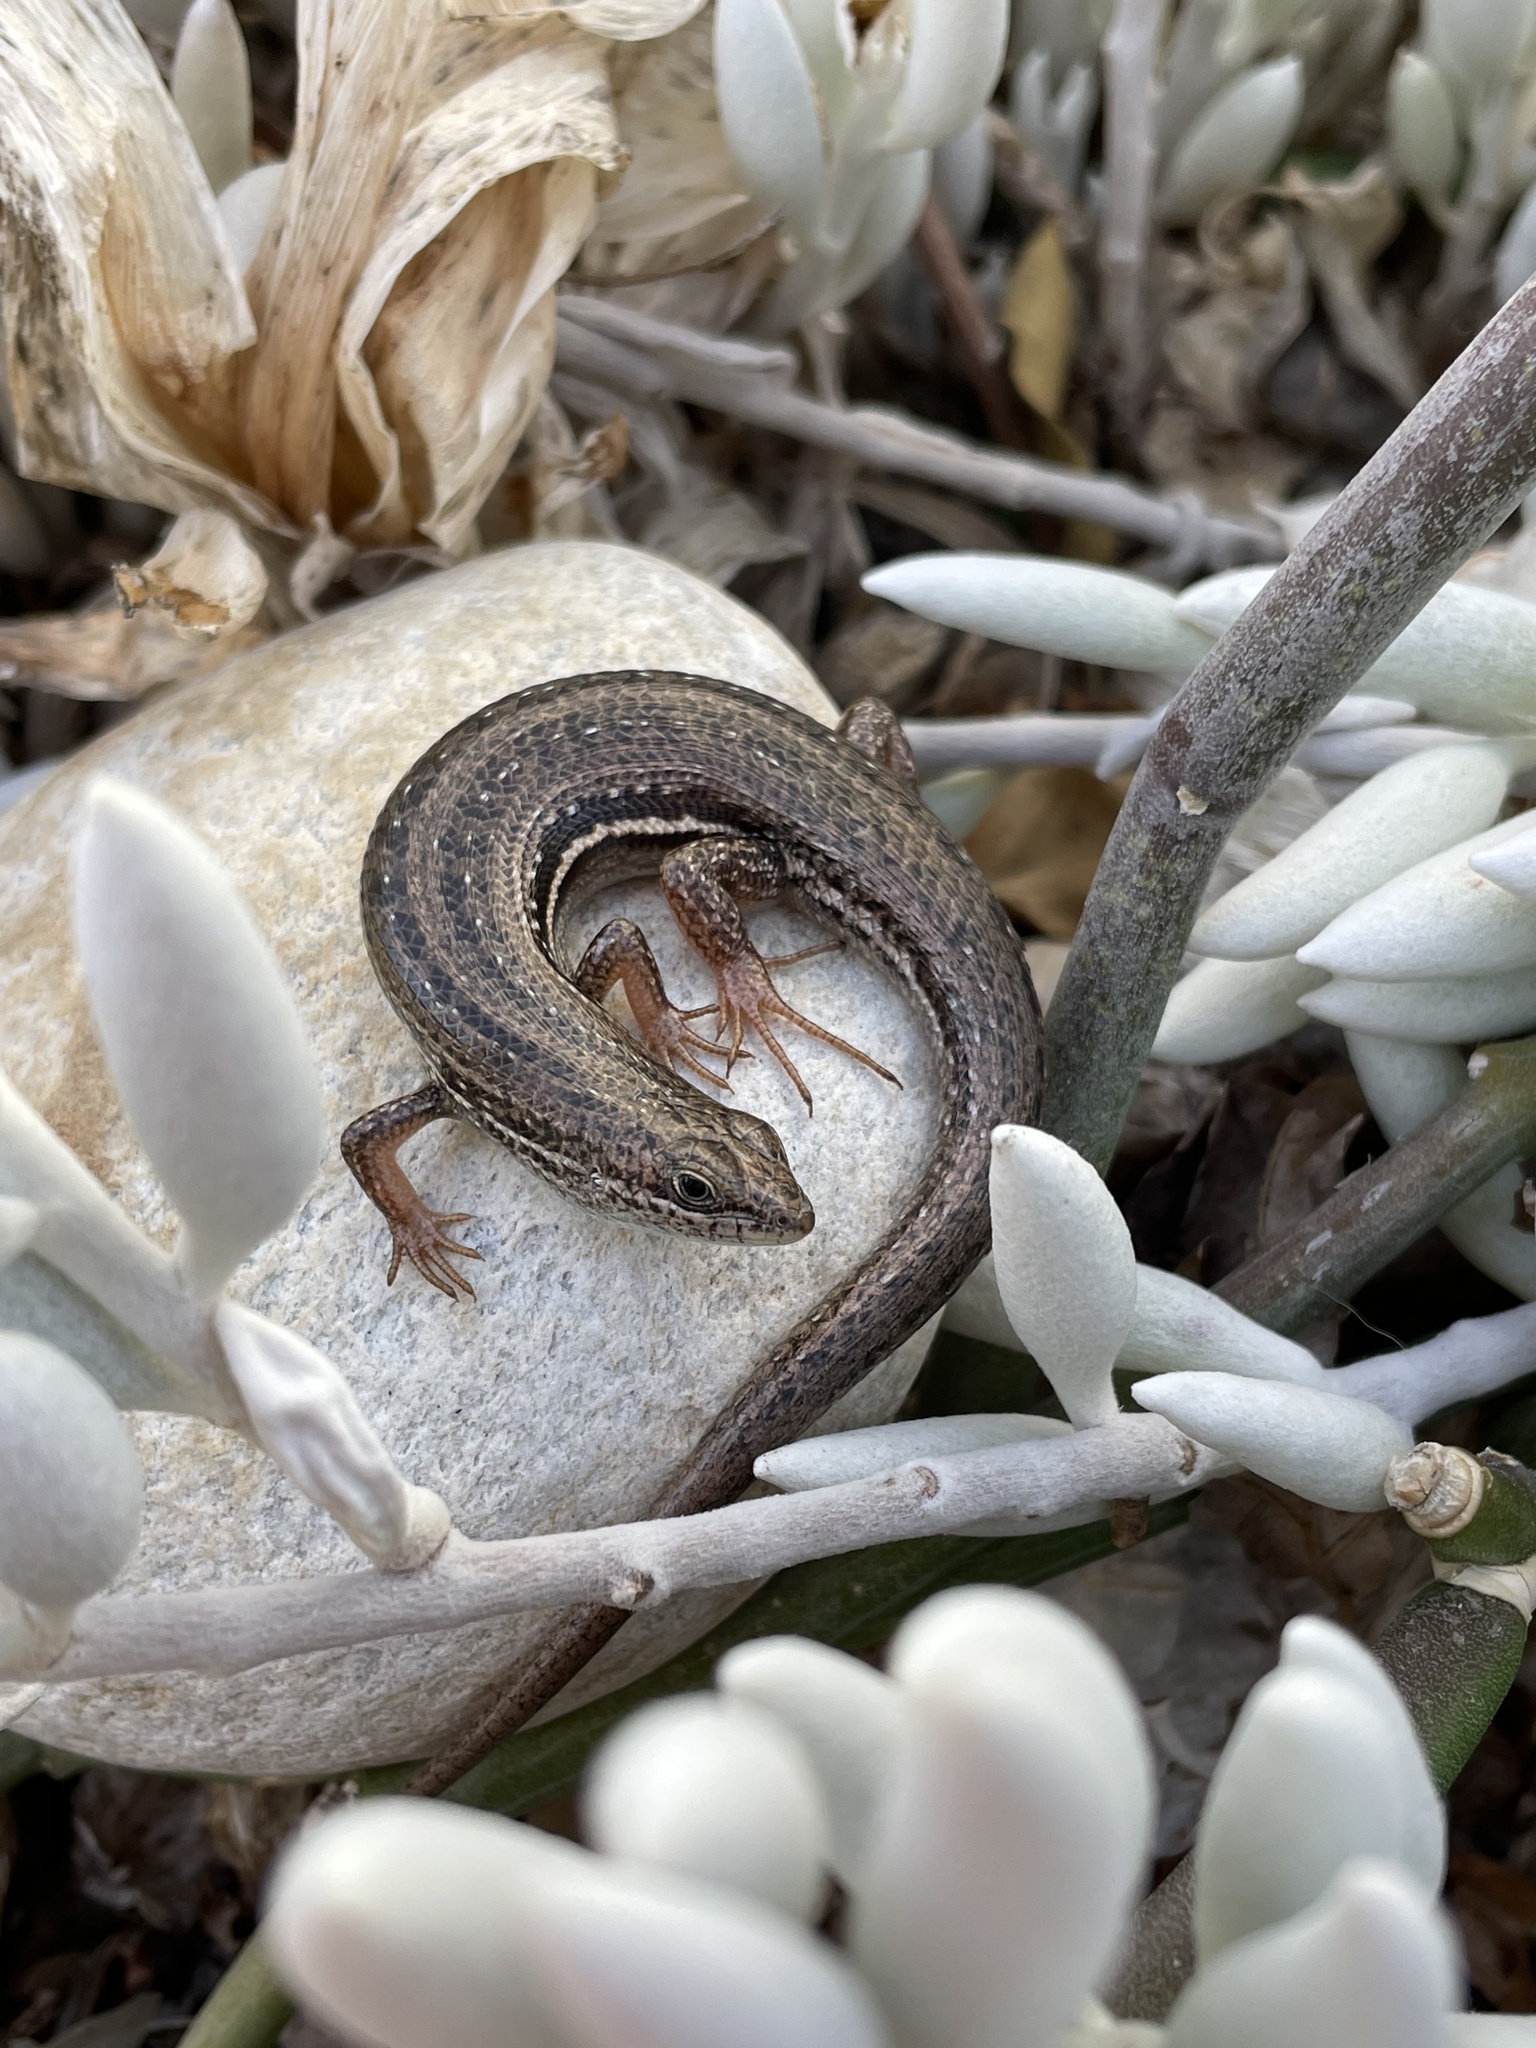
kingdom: Animalia
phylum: Chordata
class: Squamata
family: Scincidae
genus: Trachylepis
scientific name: Trachylepis homalocephala
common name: Red-sided skink
